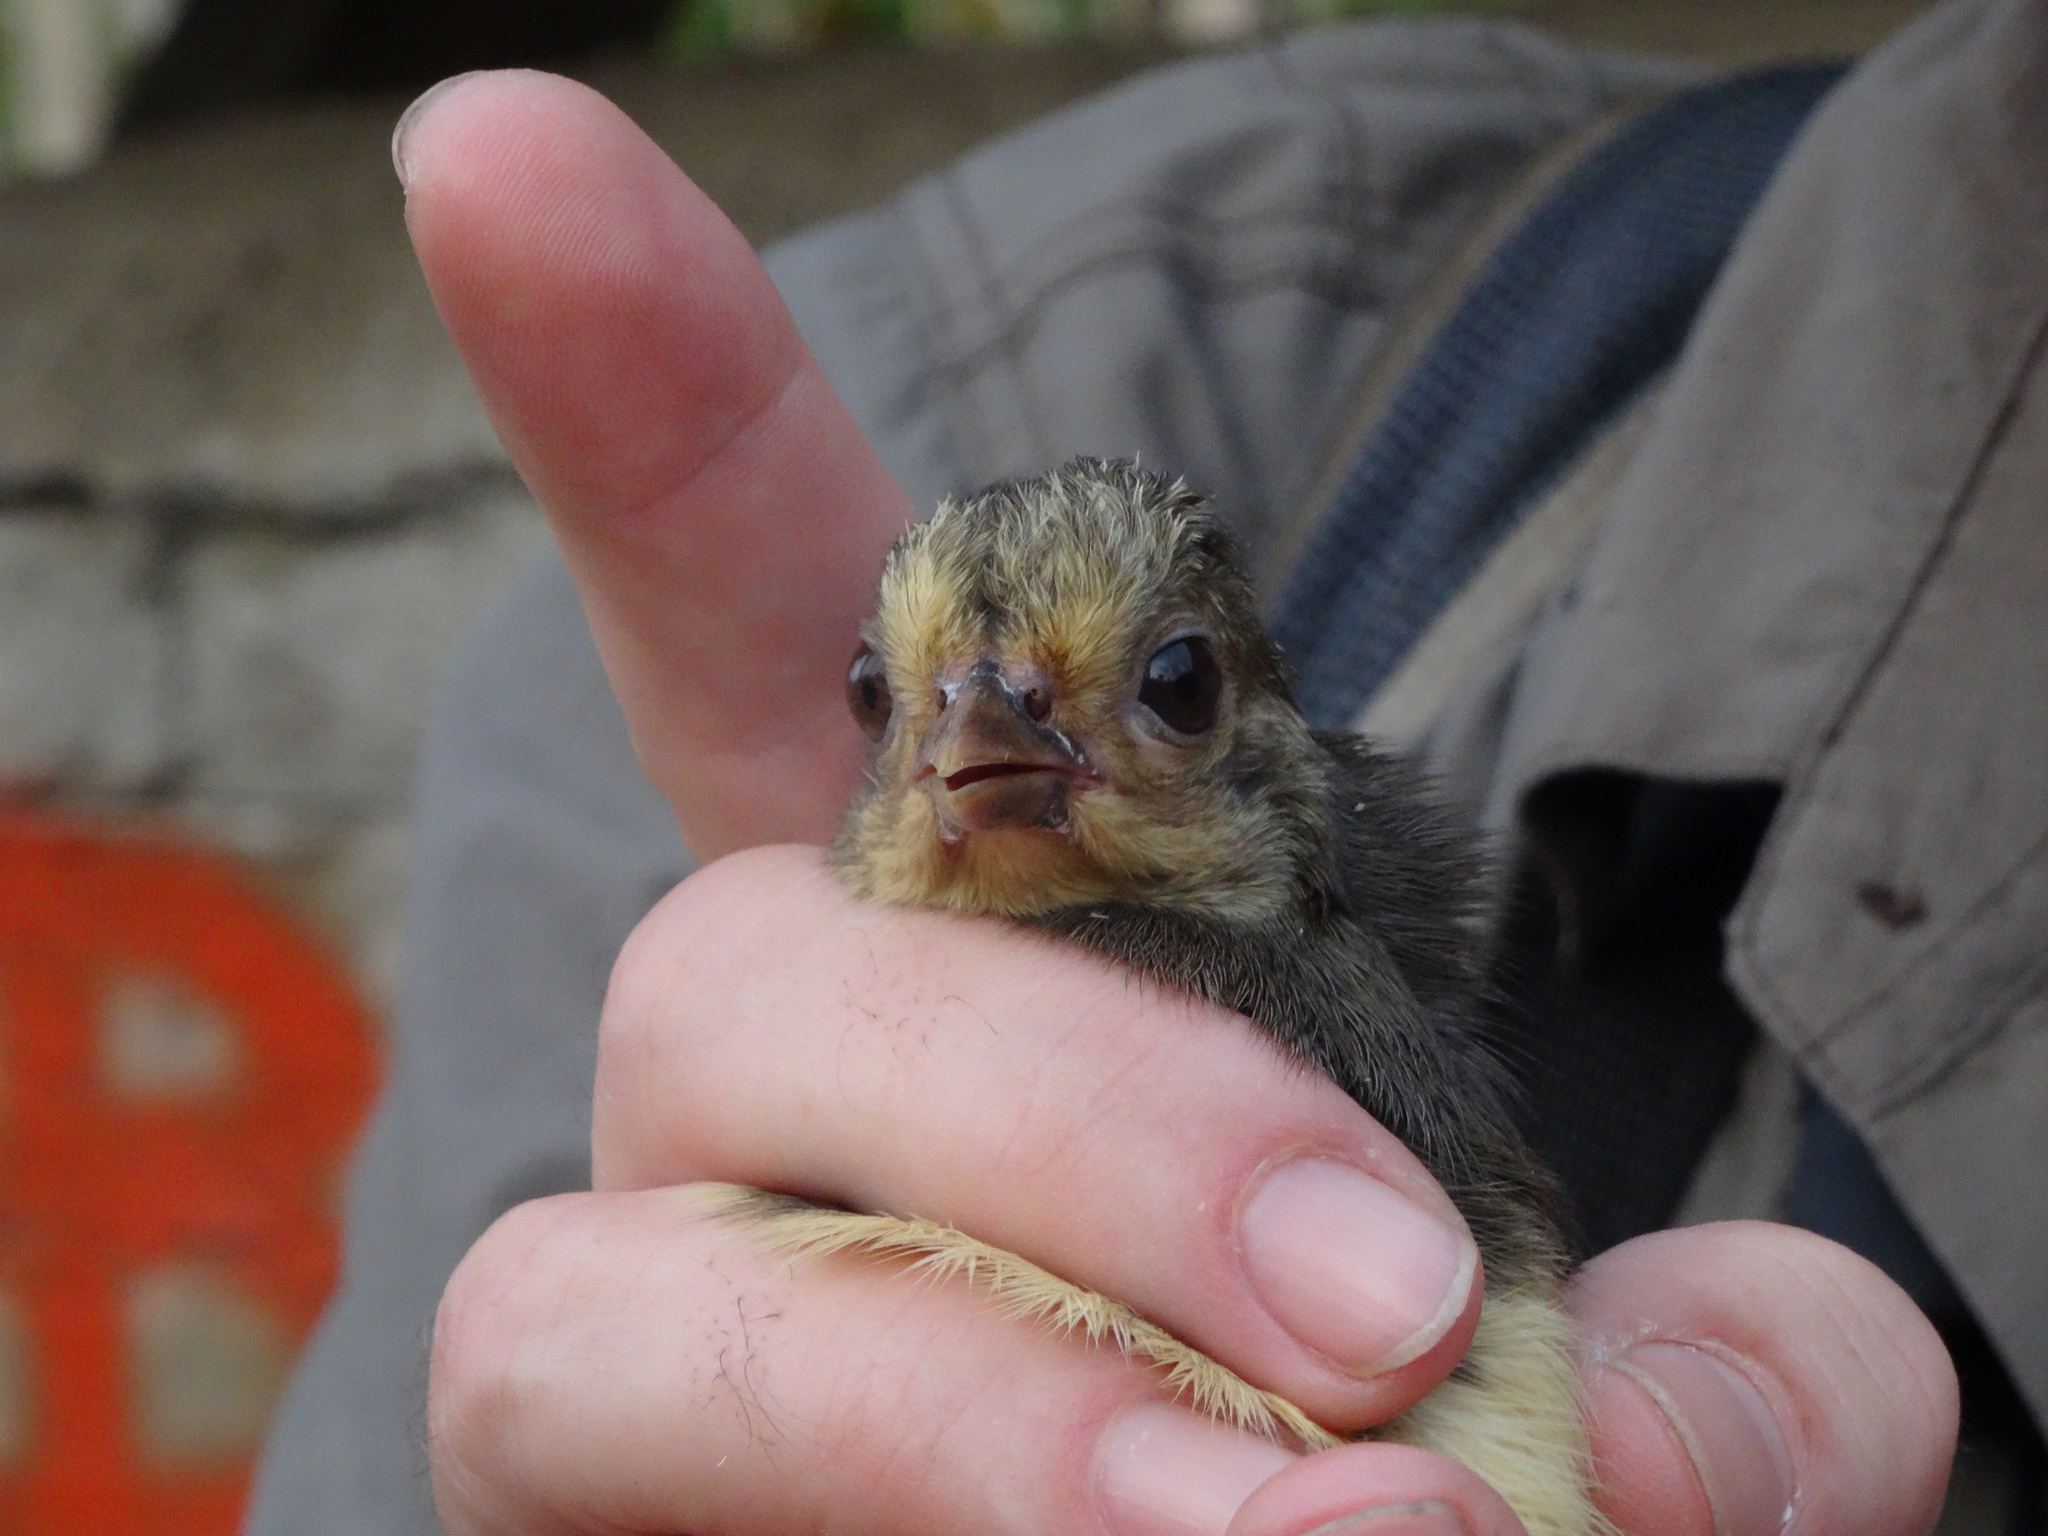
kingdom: Animalia
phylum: Chordata
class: Aves
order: Galliformes
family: Megapodiidae
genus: Macrocephalon
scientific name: Macrocephalon maleo
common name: Maleo
